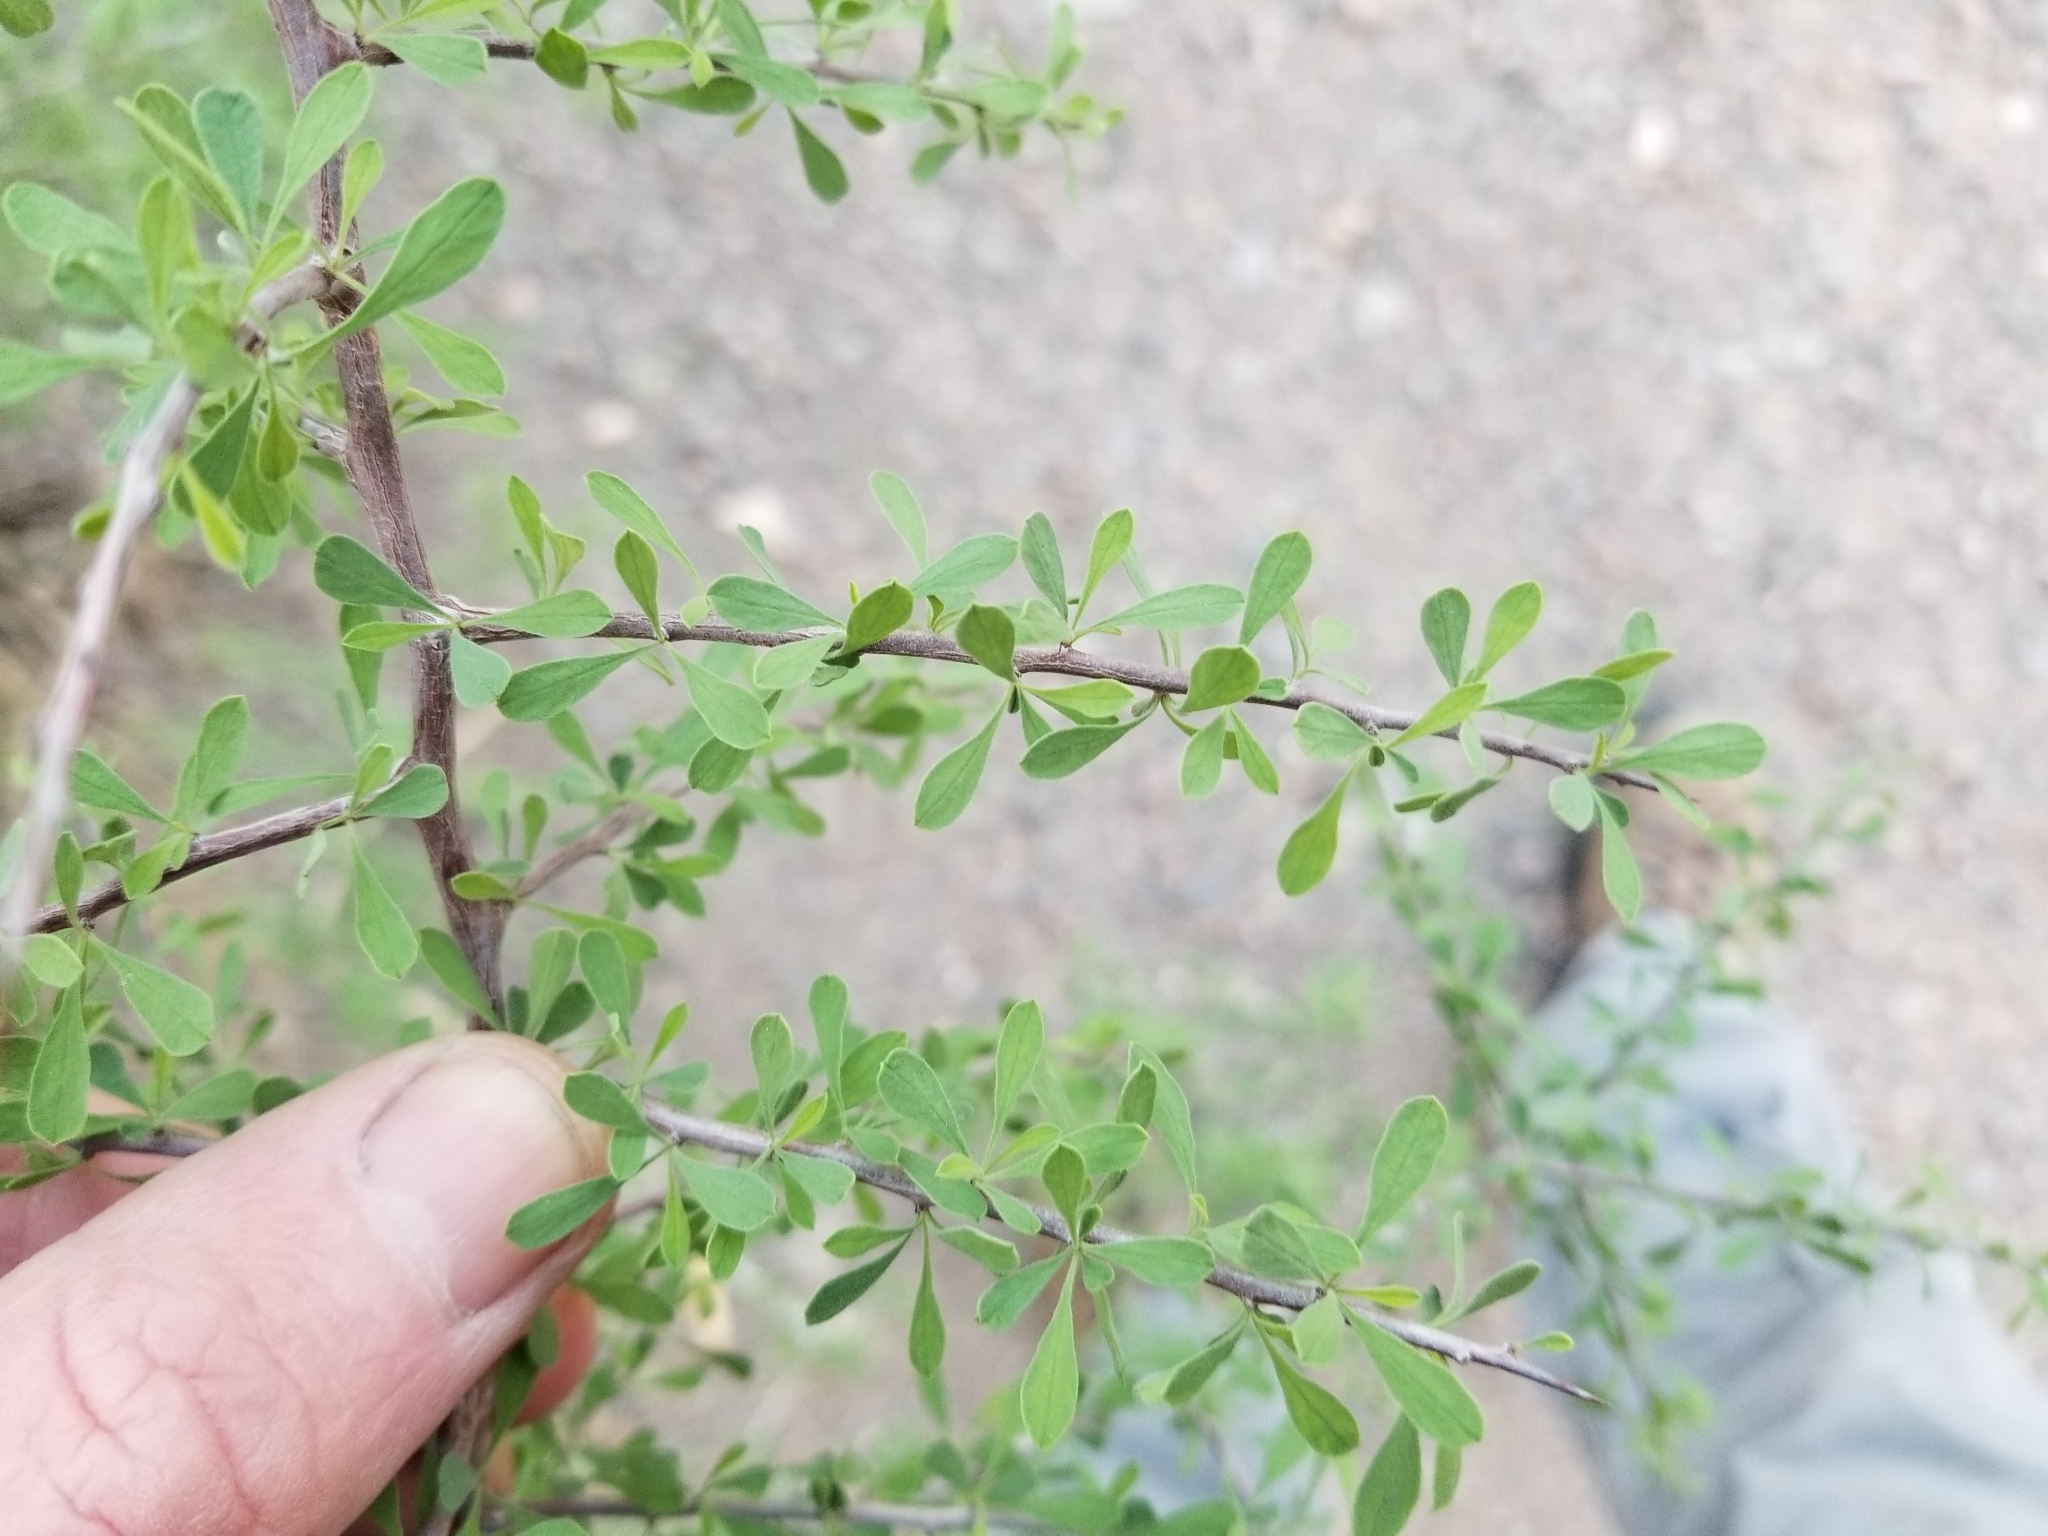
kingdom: Plantae
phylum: Tracheophyta
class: Magnoliopsida
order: Rosales
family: Rhamnaceae
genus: Condalia
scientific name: Condalia globosa
